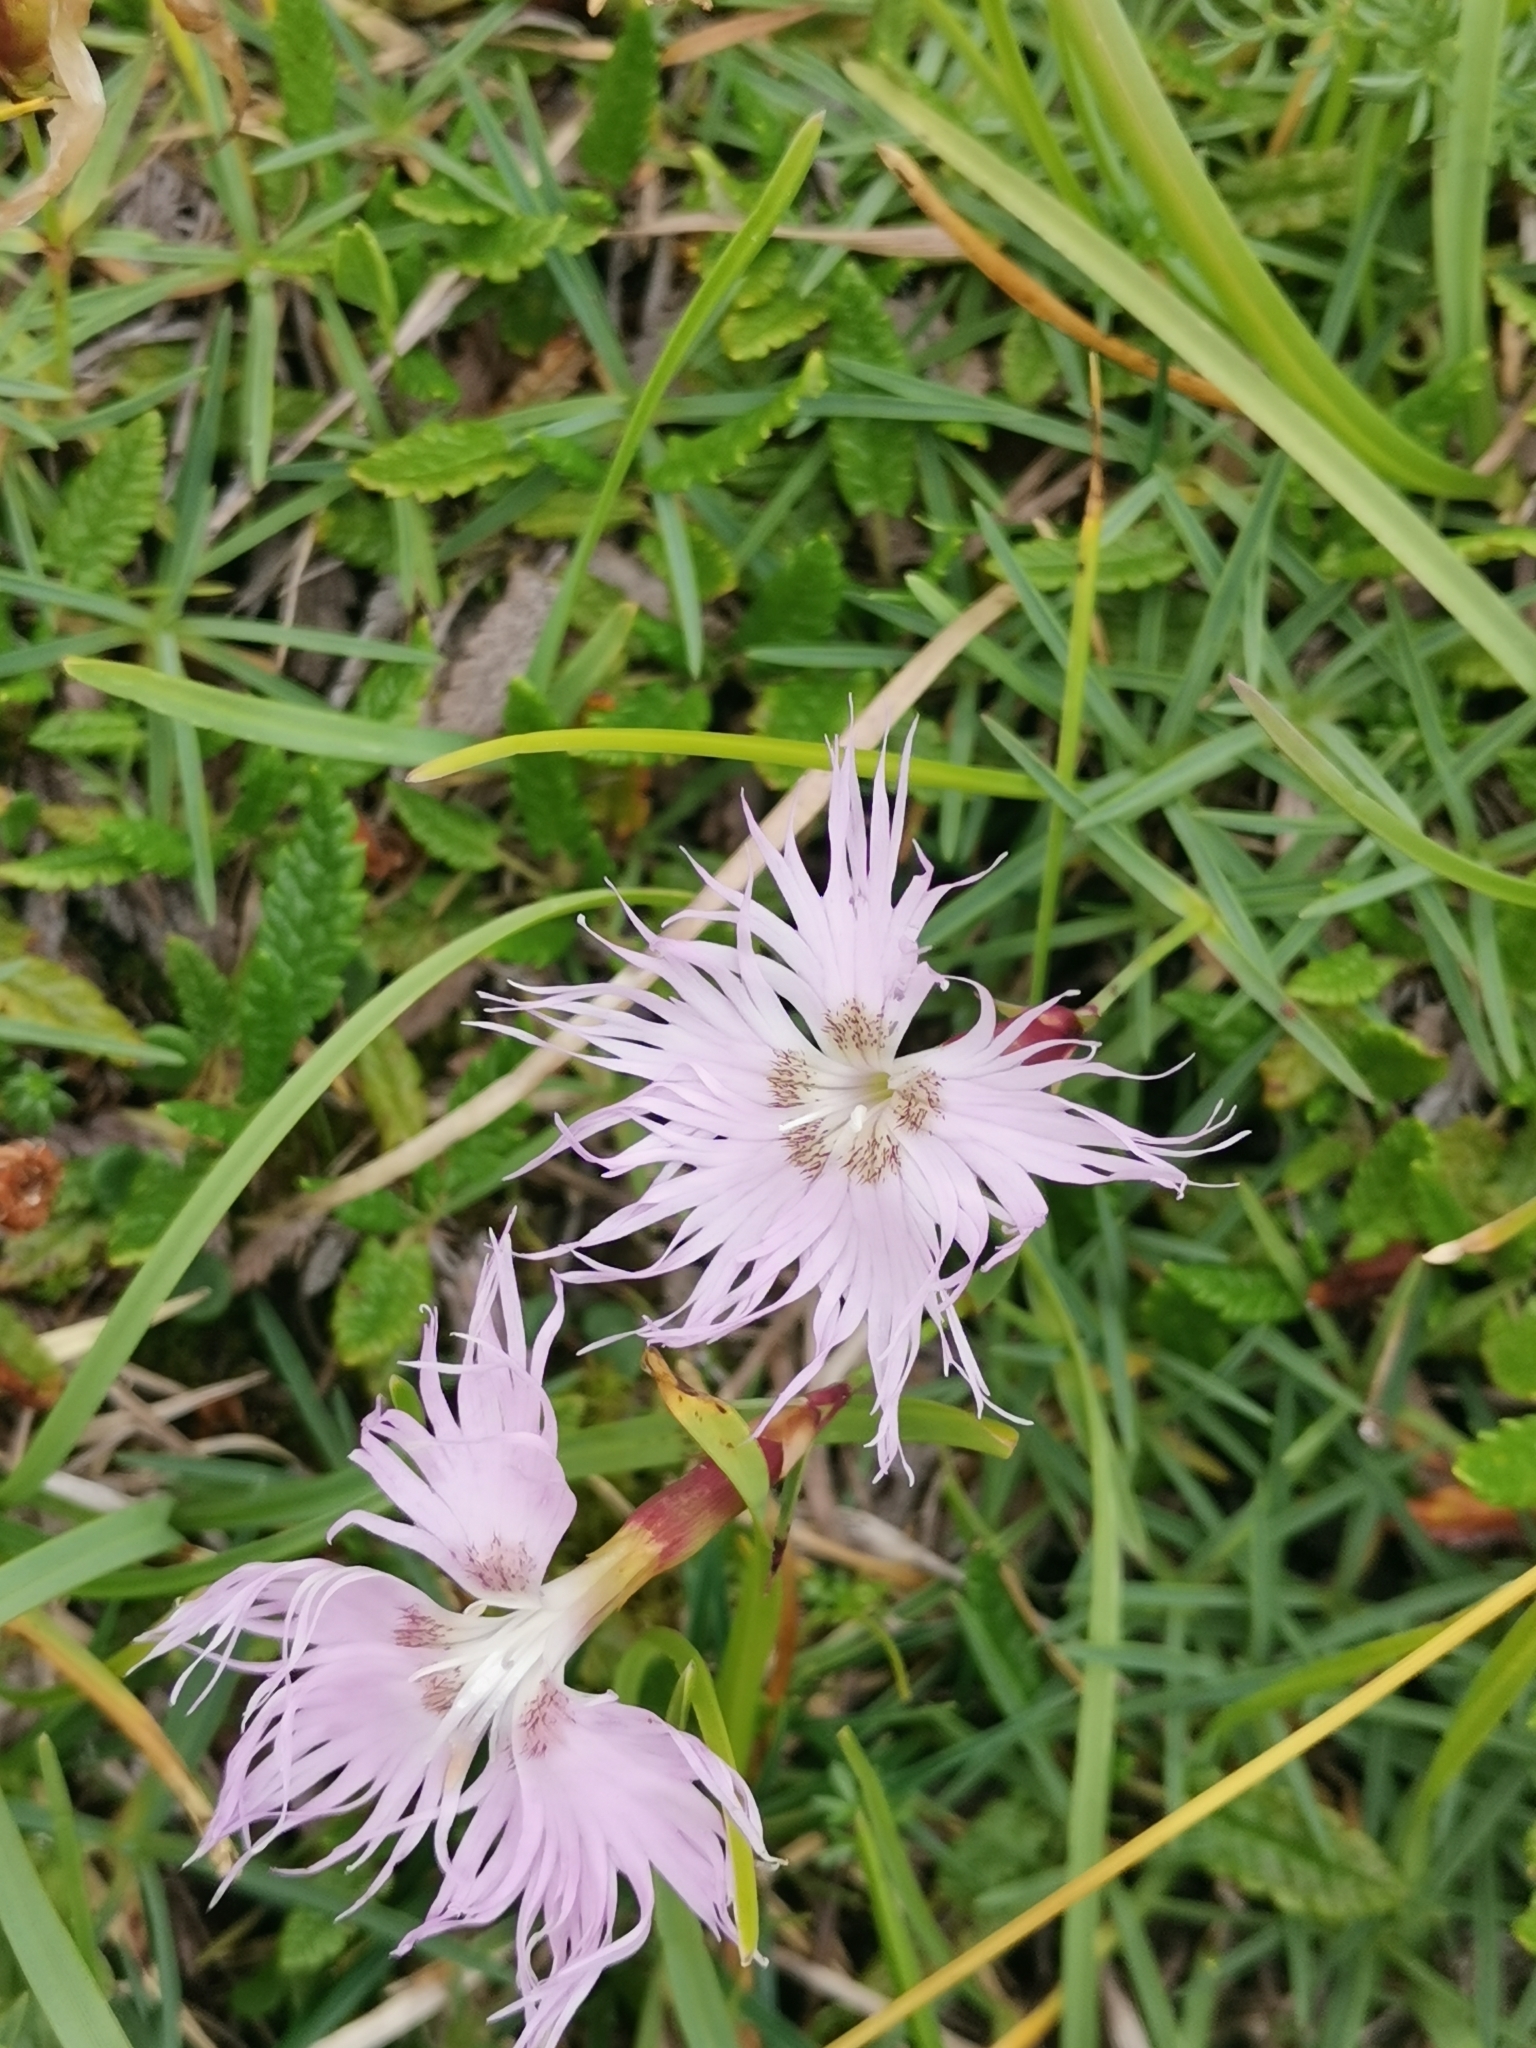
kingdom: Plantae
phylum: Tracheophyta
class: Magnoliopsida
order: Caryophyllales
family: Caryophyllaceae
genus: Dianthus
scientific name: Dianthus sternbergii
